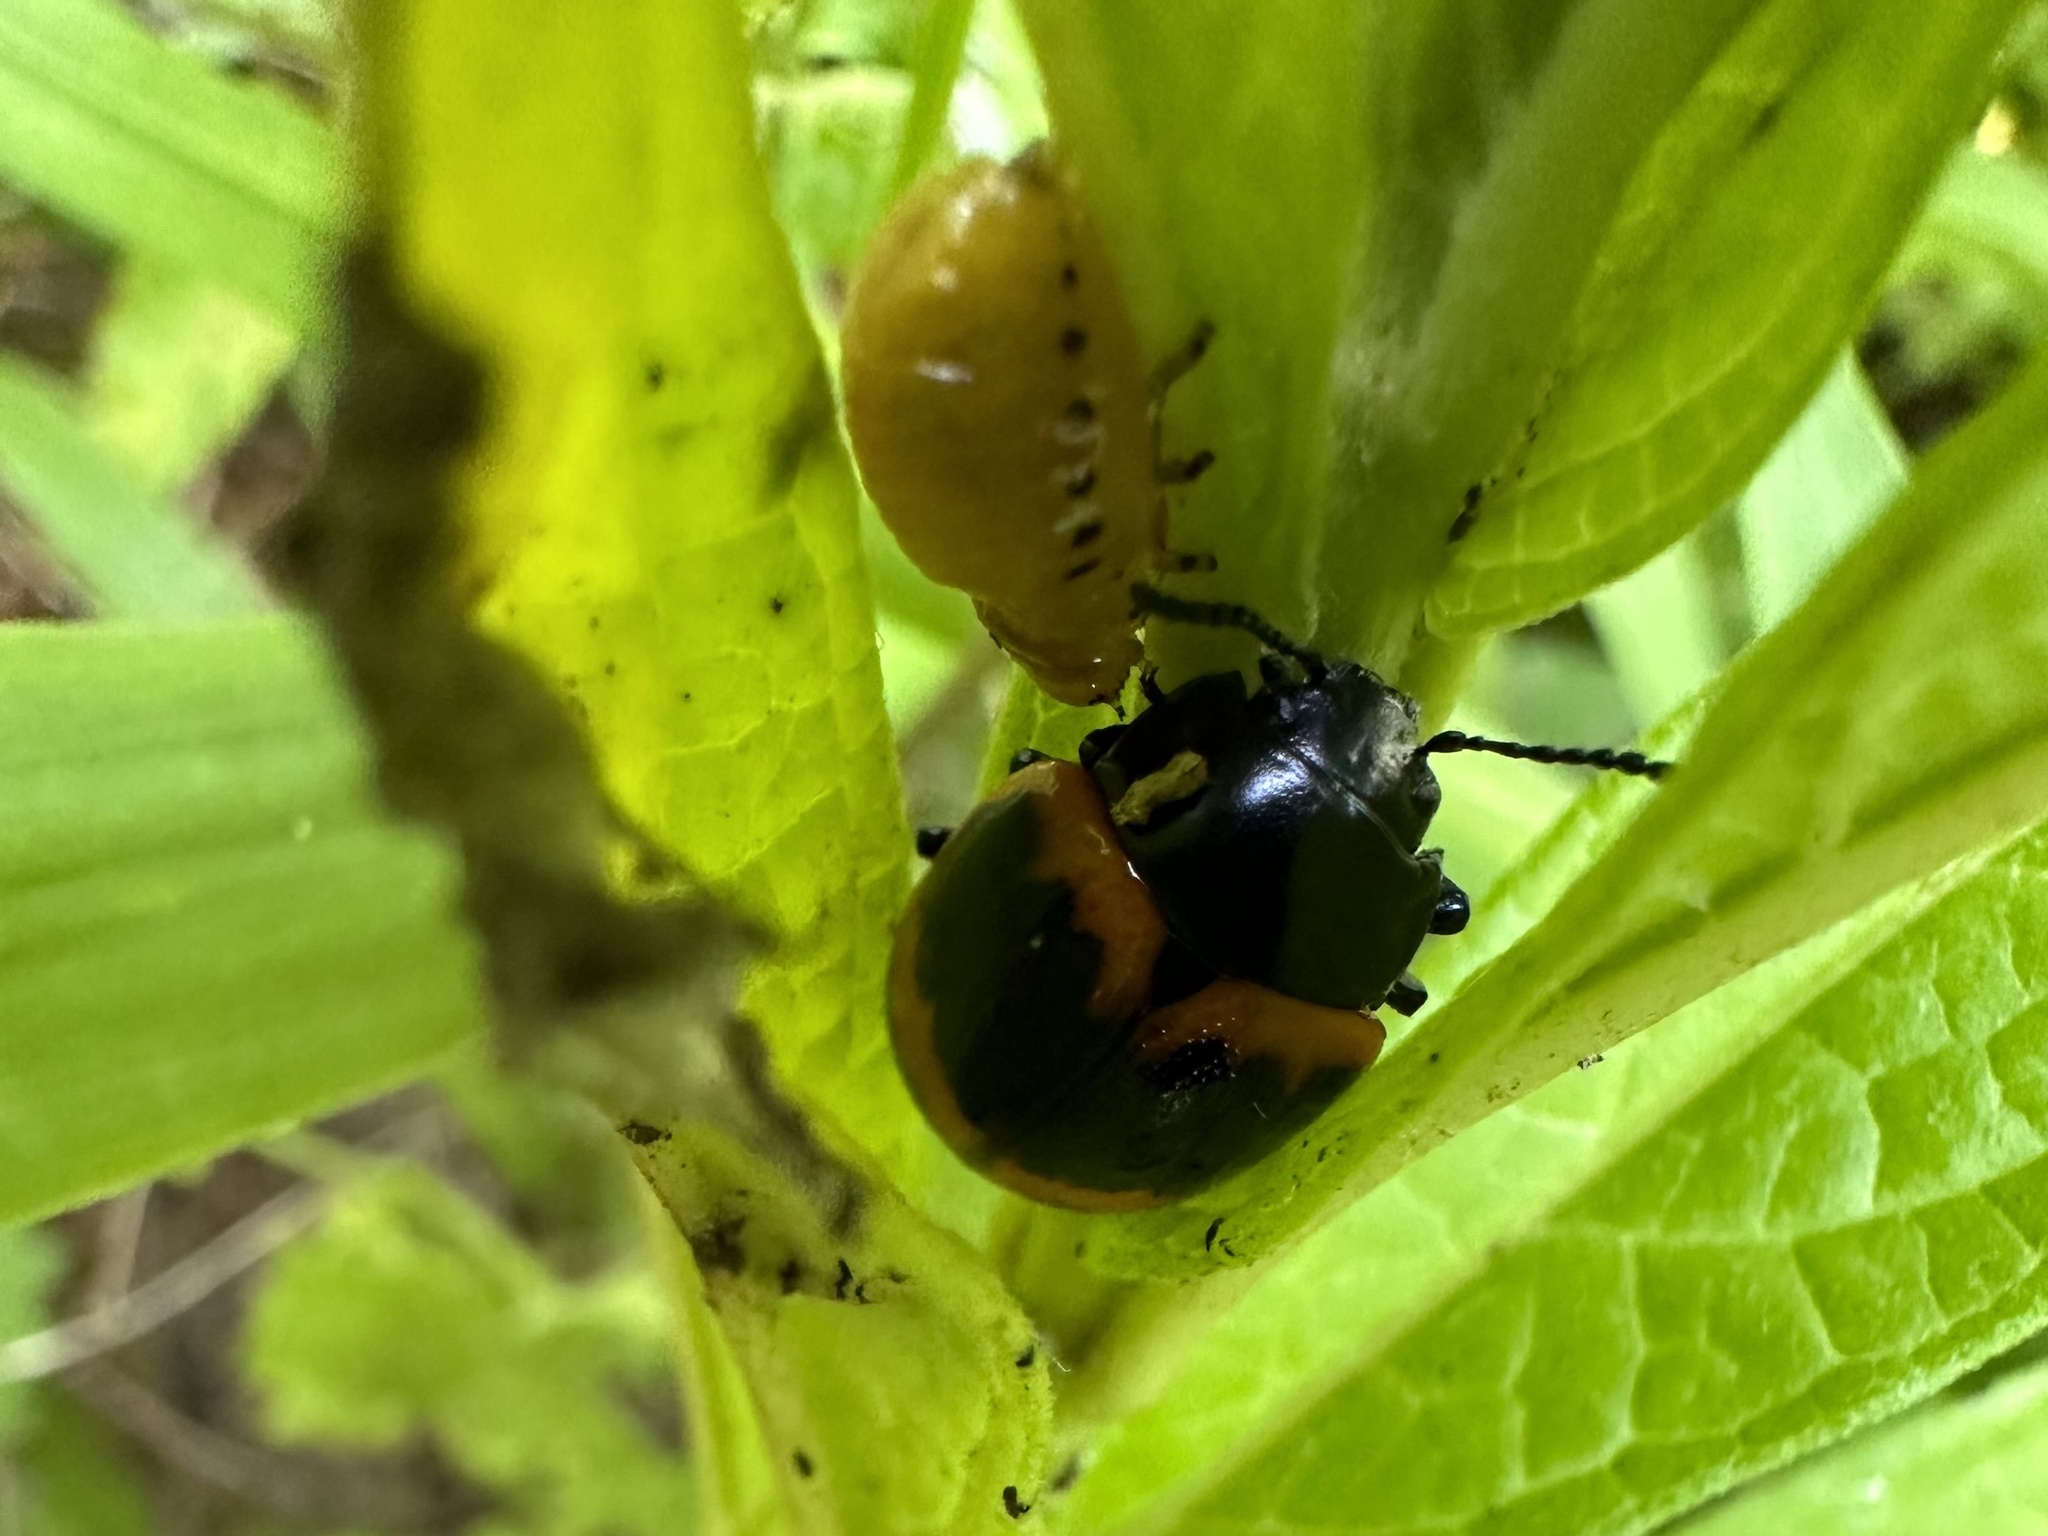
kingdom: Animalia
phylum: Arthropoda
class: Insecta
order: Coleoptera
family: Chrysomelidae
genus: Labidomera
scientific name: Labidomera clivicollis
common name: Swamp milkweed leaf beetle
